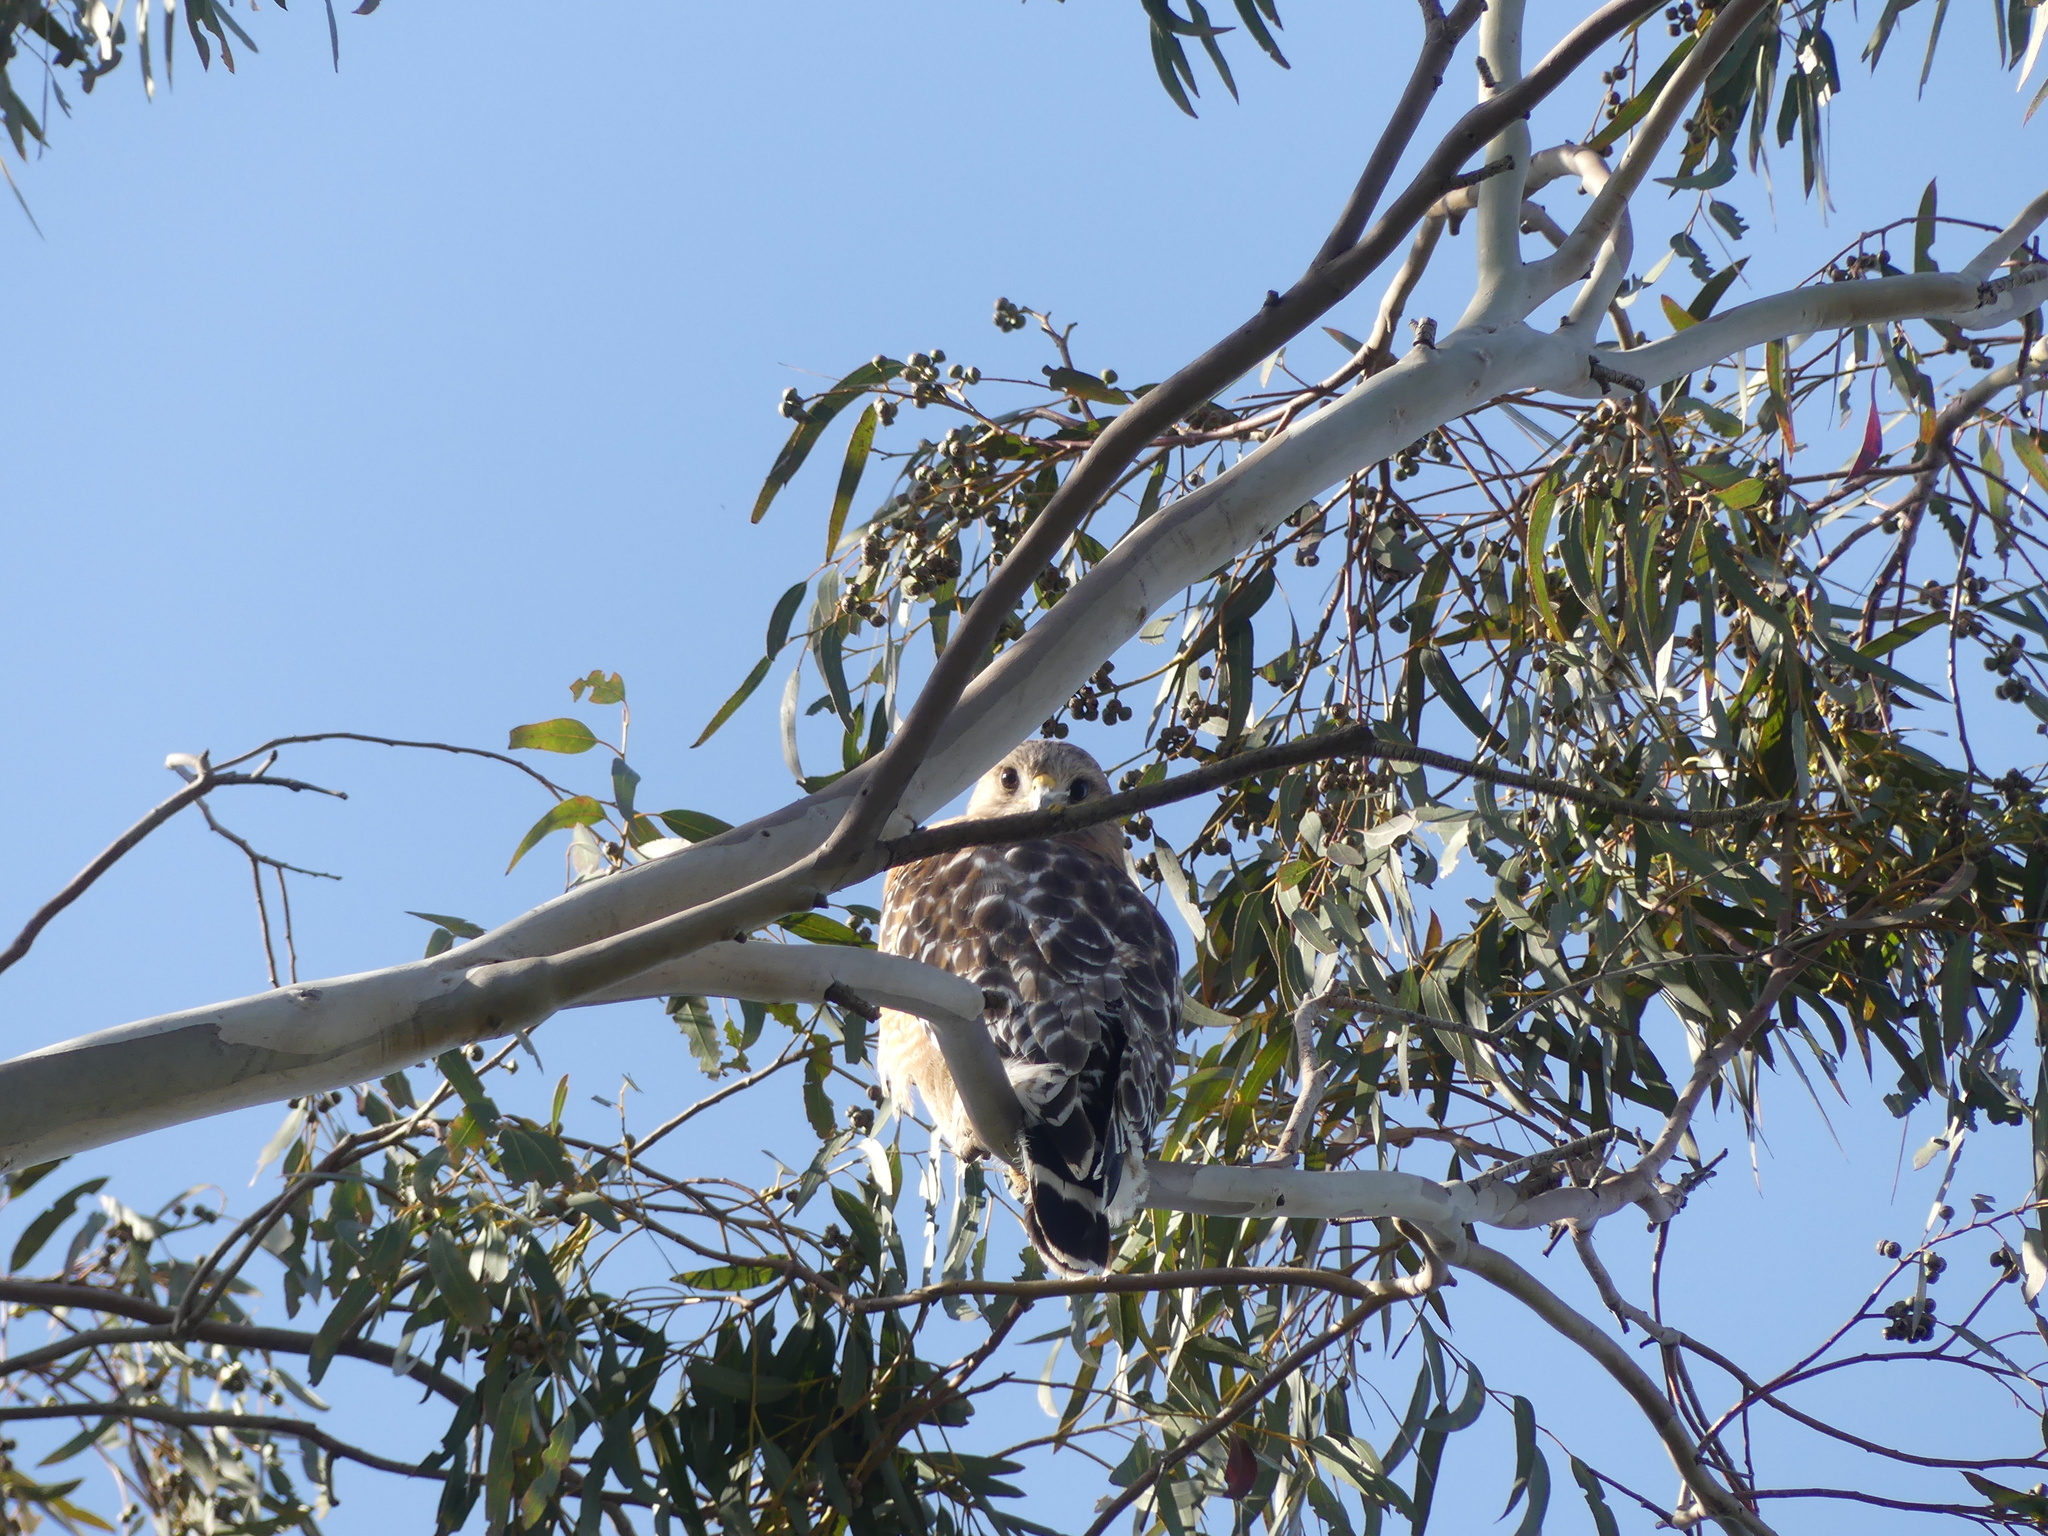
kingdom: Animalia
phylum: Chordata
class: Aves
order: Accipitriformes
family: Accipitridae
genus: Buteo
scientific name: Buteo lineatus
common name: Red-shouldered hawk
